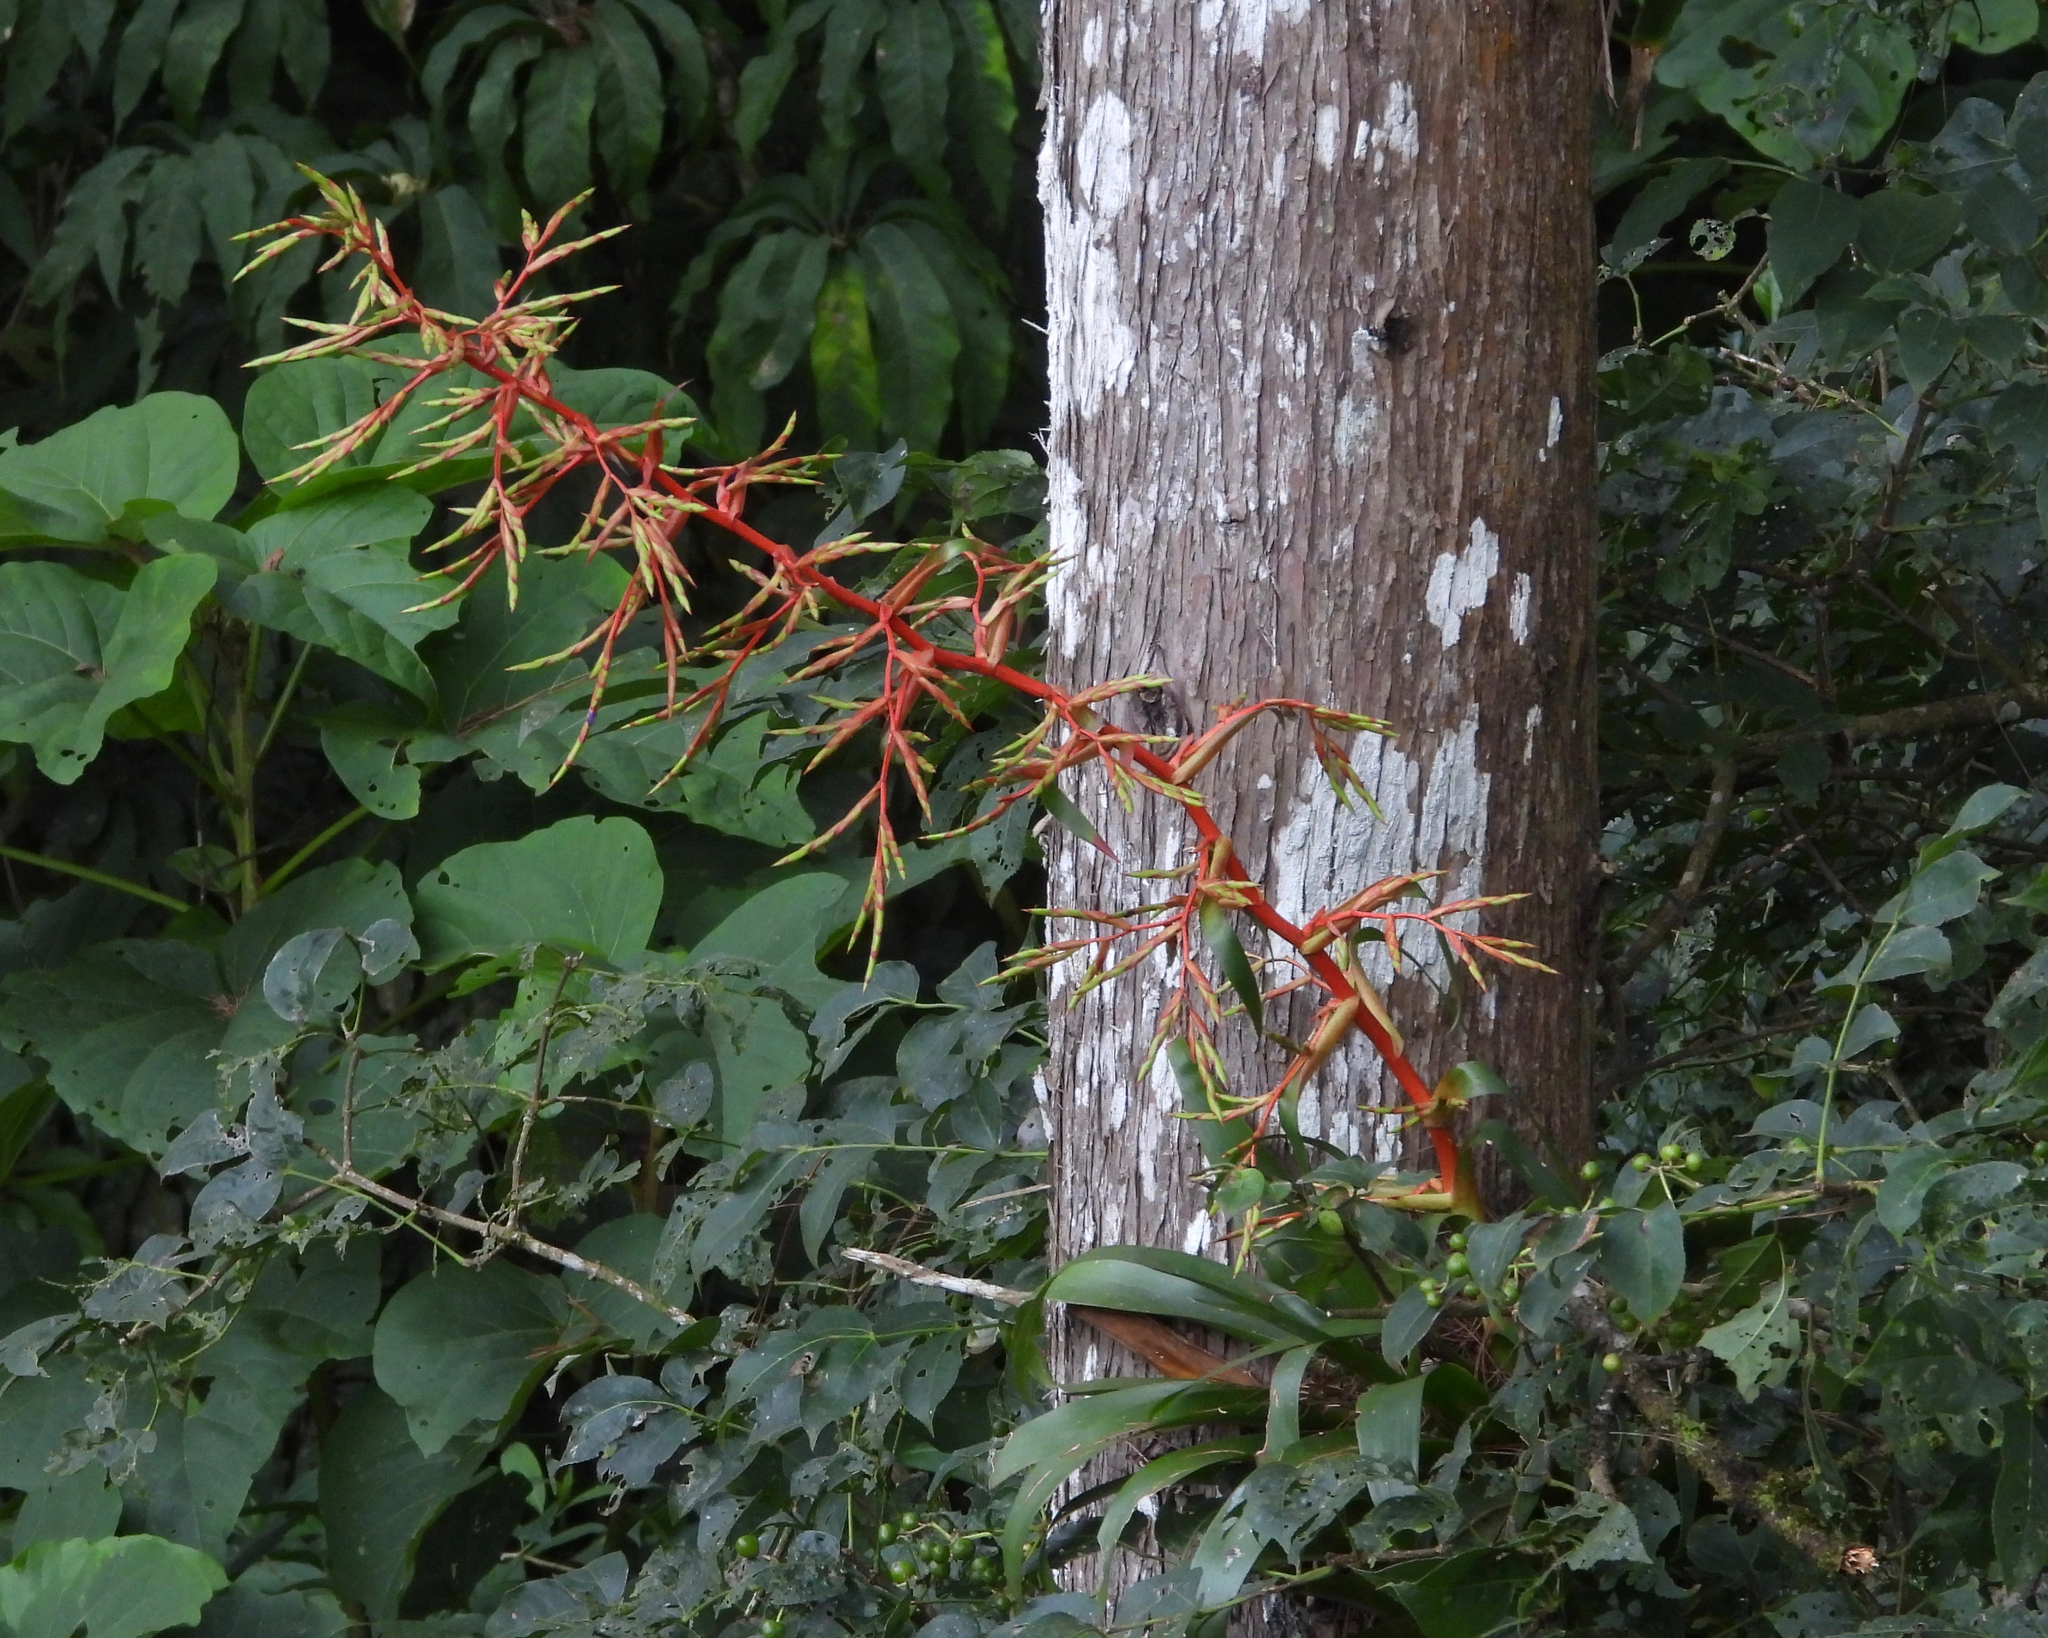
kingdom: Plantae
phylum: Tracheophyta
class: Liliopsida
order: Poales
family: Bromeliaceae
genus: Tillandsia
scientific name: Tillandsia guatemalensis
